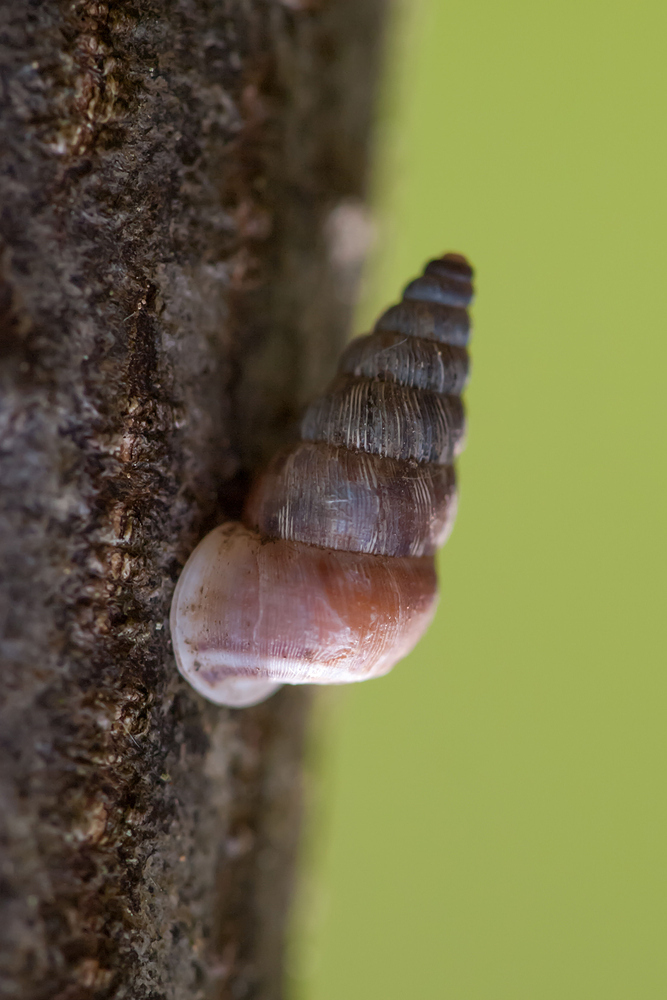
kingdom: Animalia
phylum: Mollusca
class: Gastropoda
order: Architaenioglossa
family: Cochlostomatidae
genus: Obscurella
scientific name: Obscurella conica
